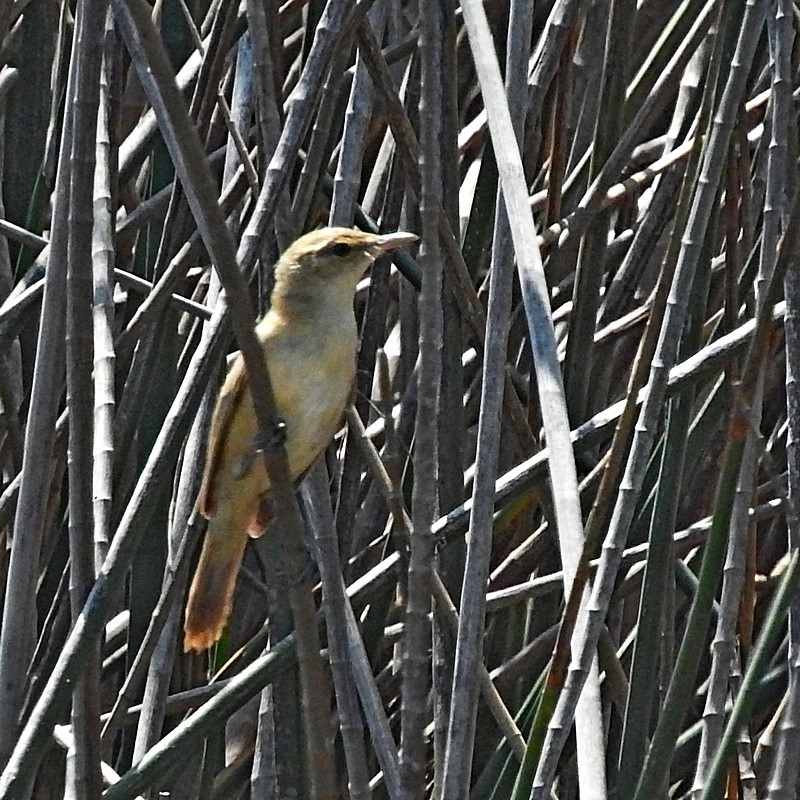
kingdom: Animalia
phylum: Chordata
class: Aves
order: Passeriformes
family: Acrocephalidae
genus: Acrocephalus
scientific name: Acrocephalus australis
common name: Australian reed warbler
